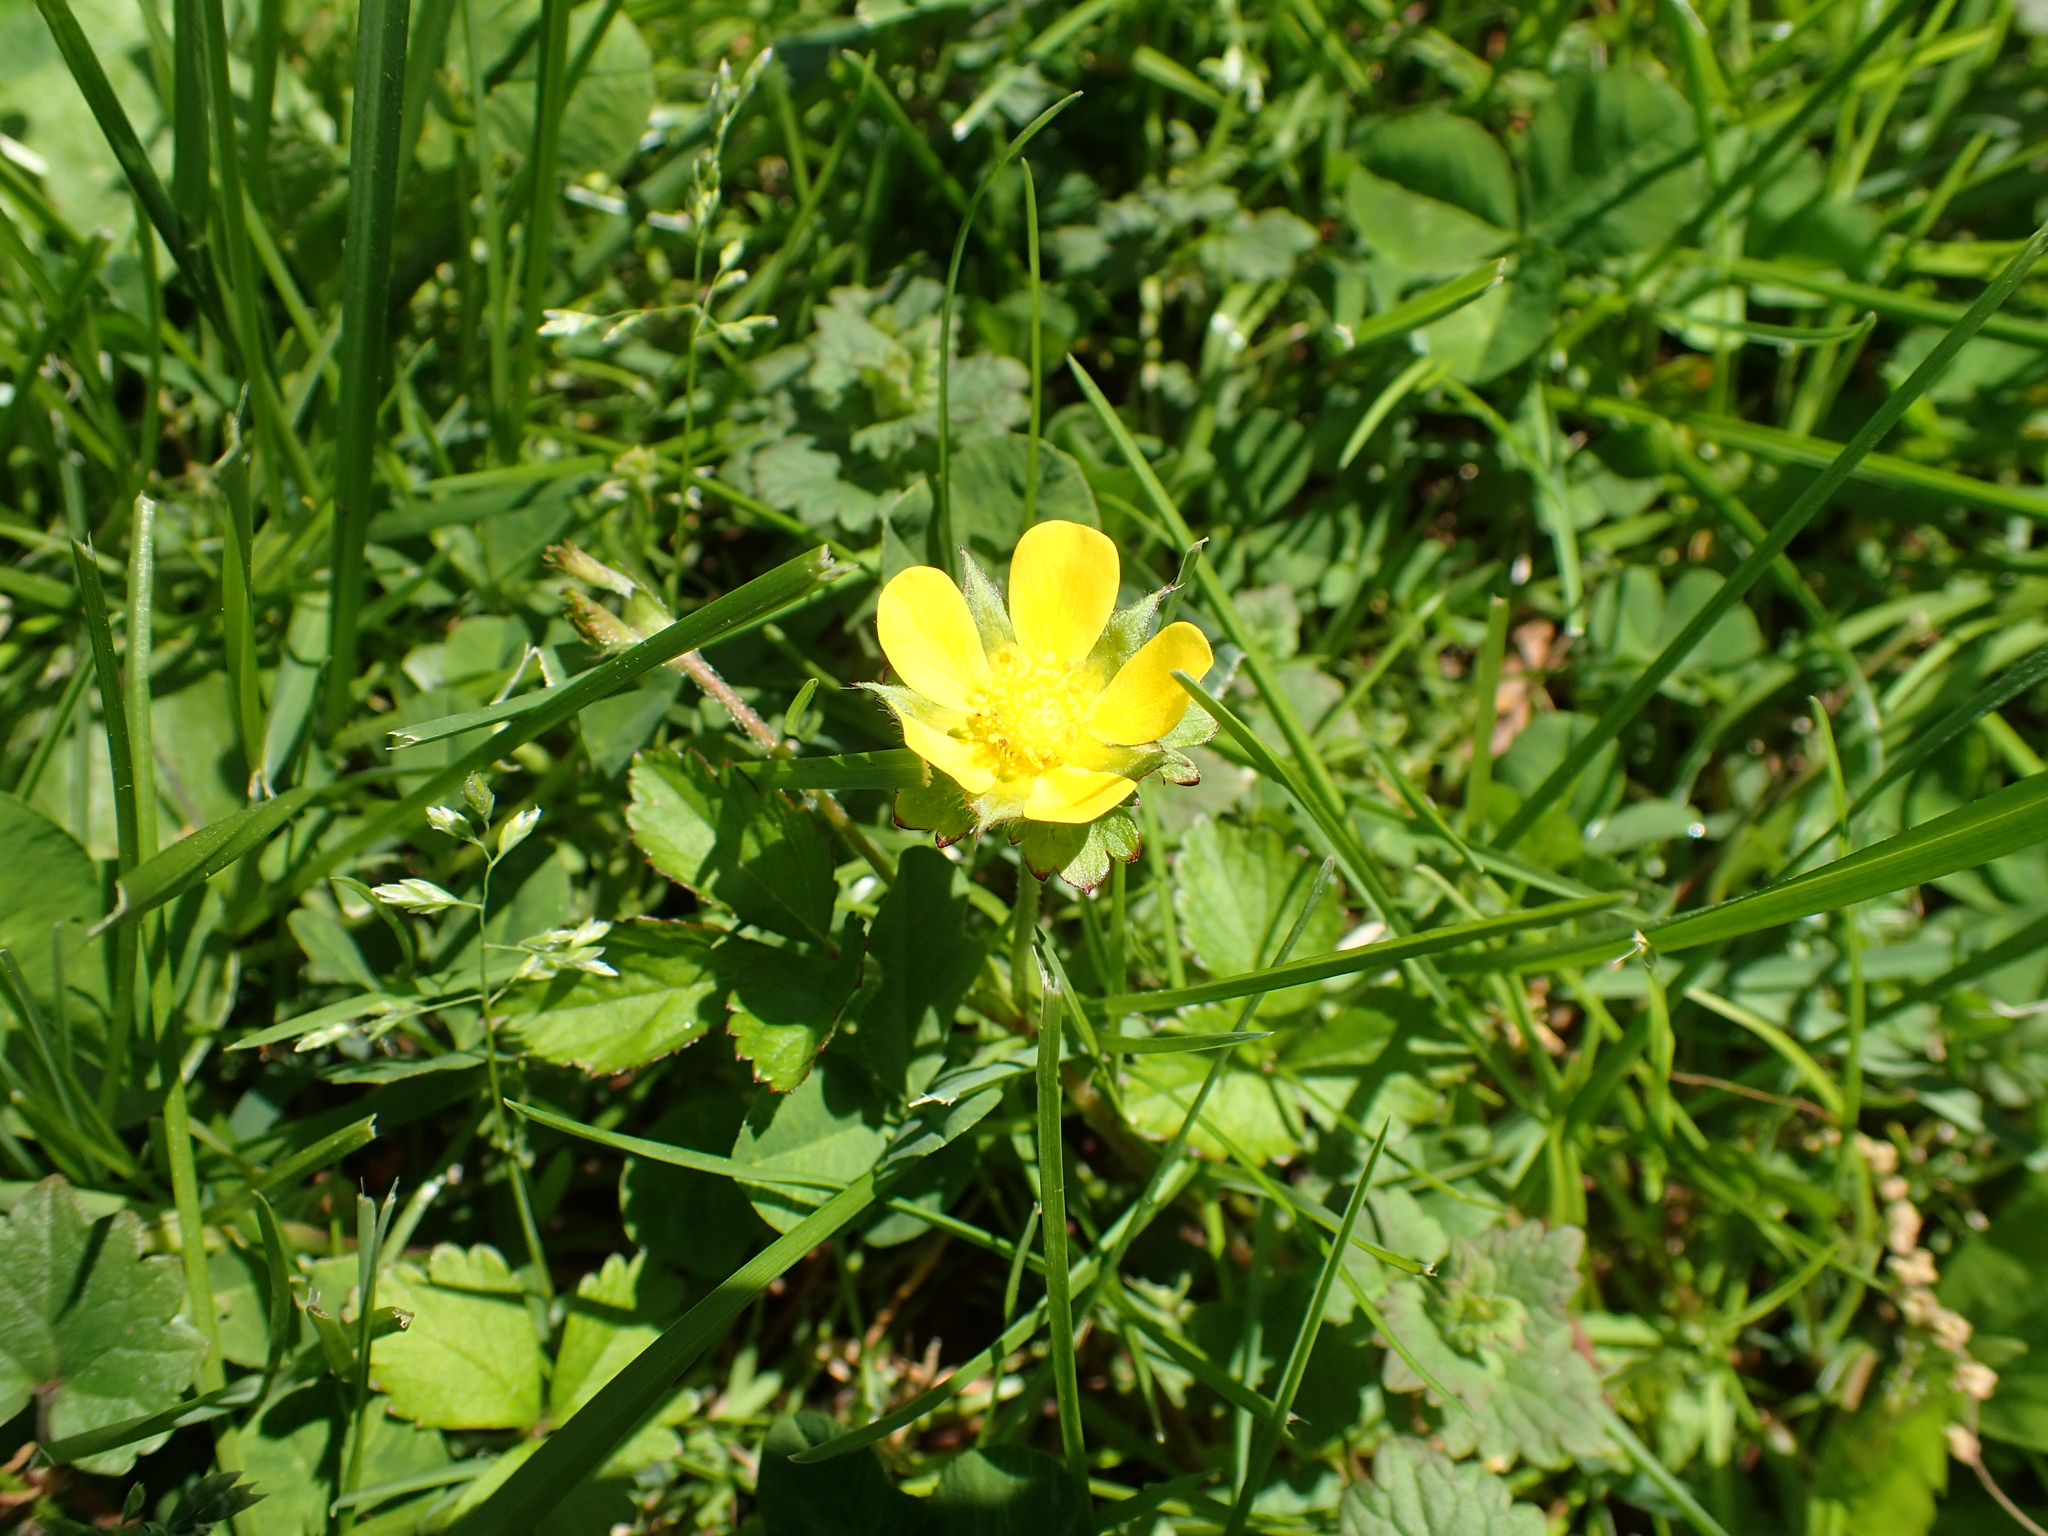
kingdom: Plantae
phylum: Tracheophyta
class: Magnoliopsida
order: Rosales
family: Rosaceae
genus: Potentilla
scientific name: Potentilla indica
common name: Yellow-flowered strawberry
